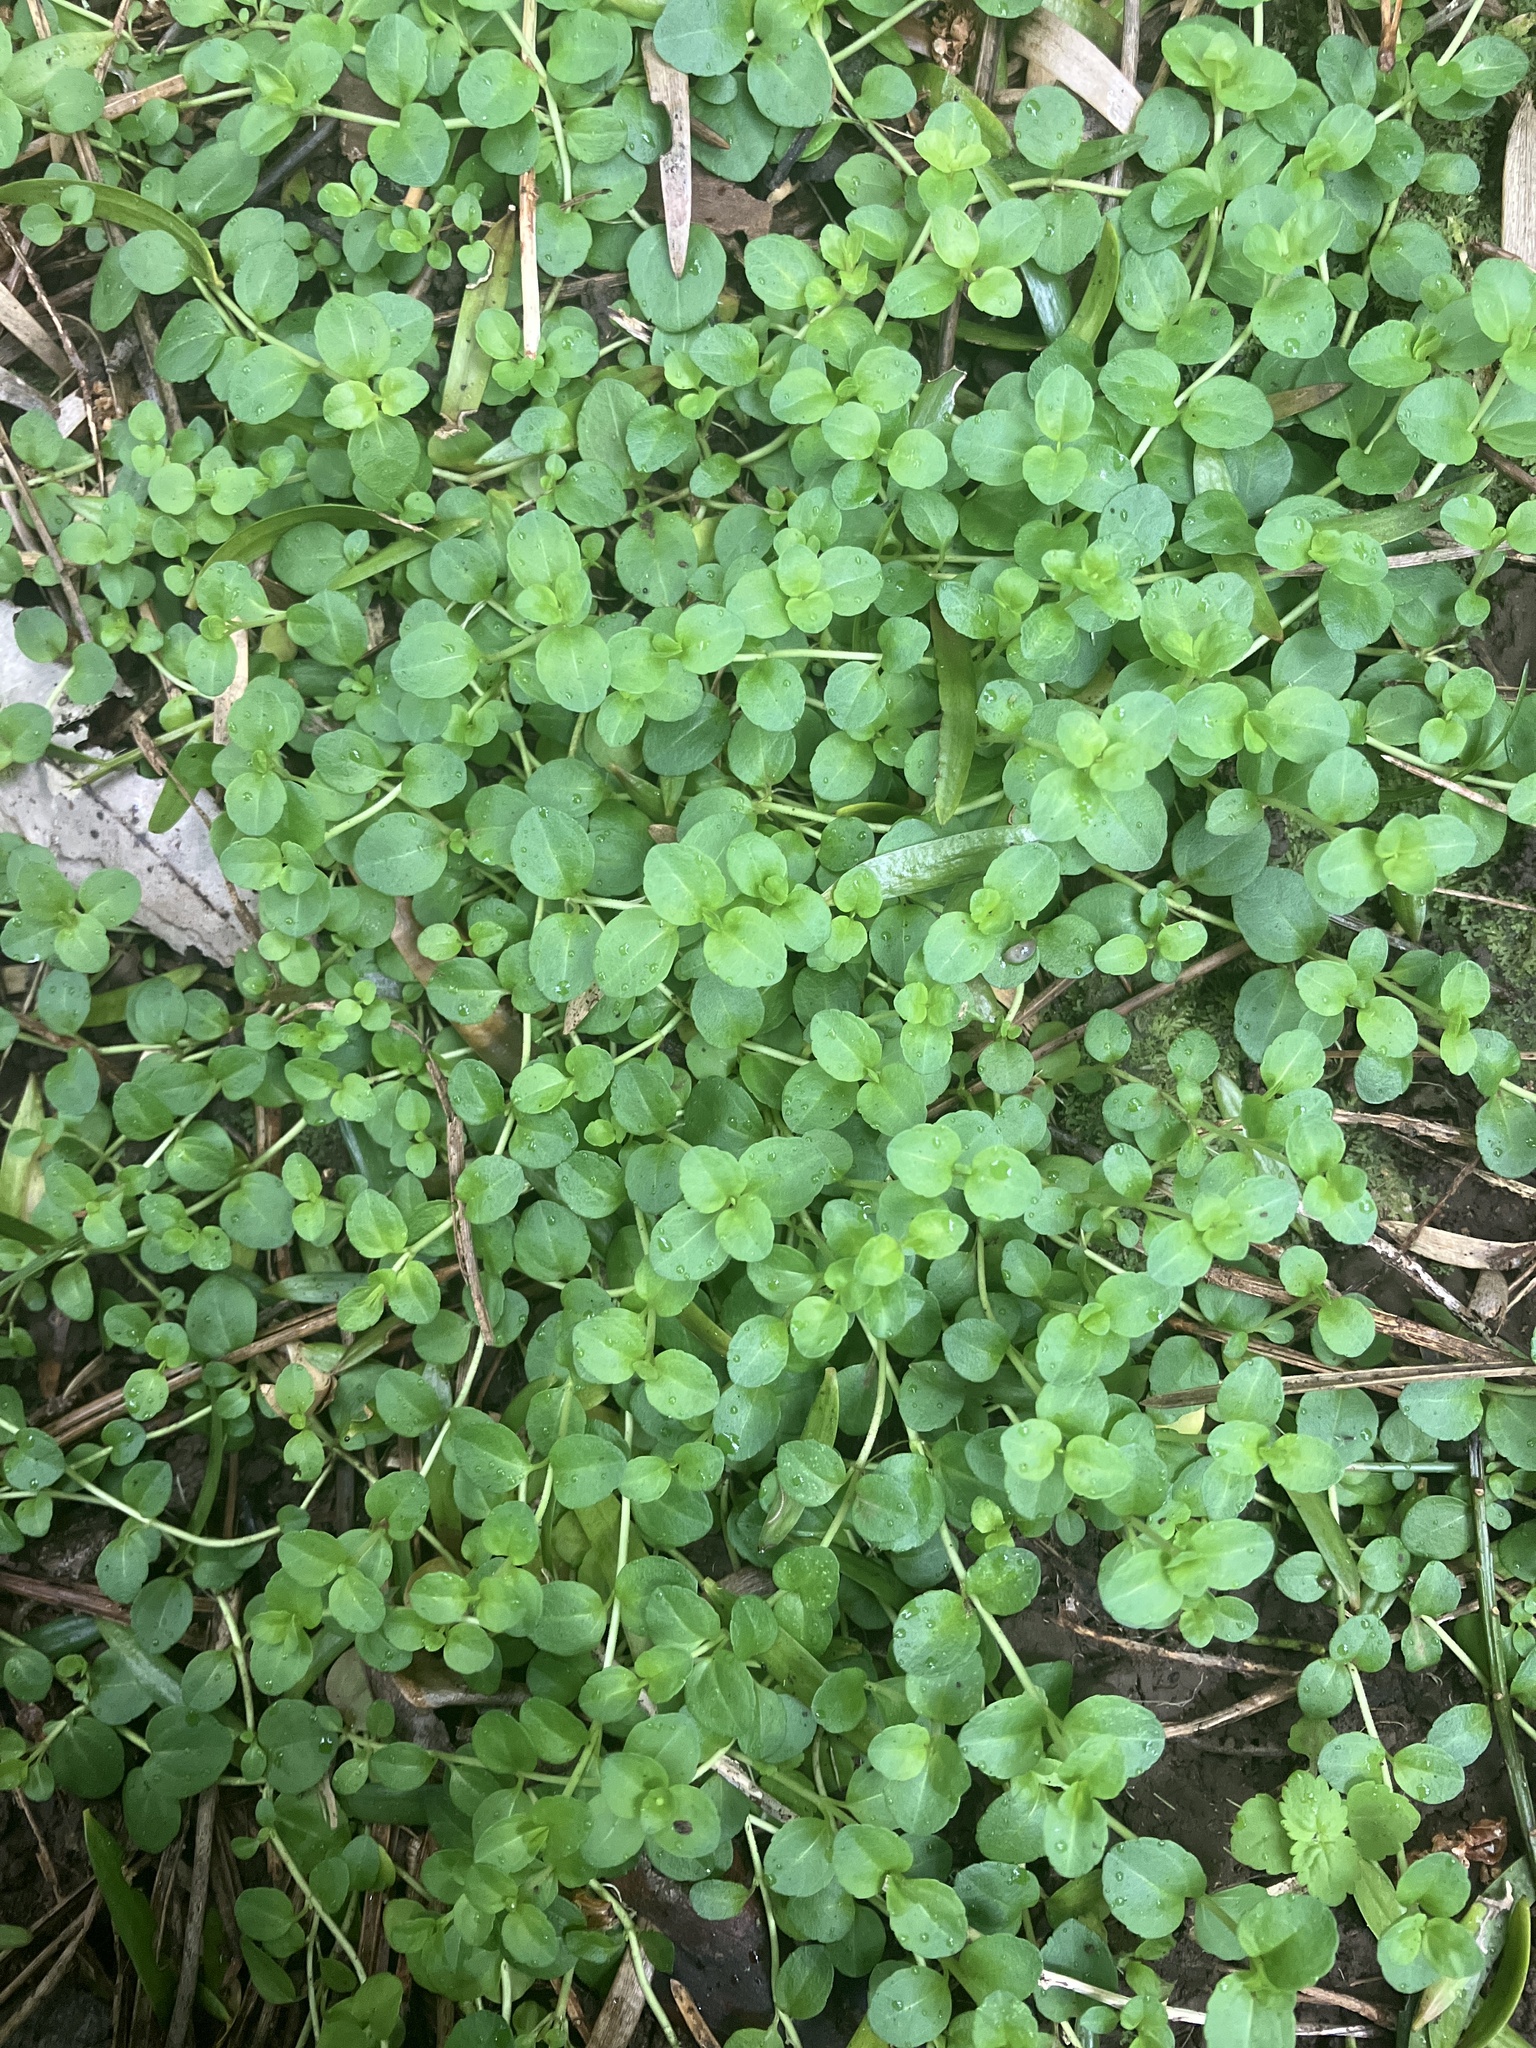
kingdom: Plantae
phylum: Tracheophyta
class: Magnoliopsida
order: Lamiales
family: Plantaginaceae
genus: Veronica
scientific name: Veronica serpyllifolia
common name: Thyme-leaved speedwell
